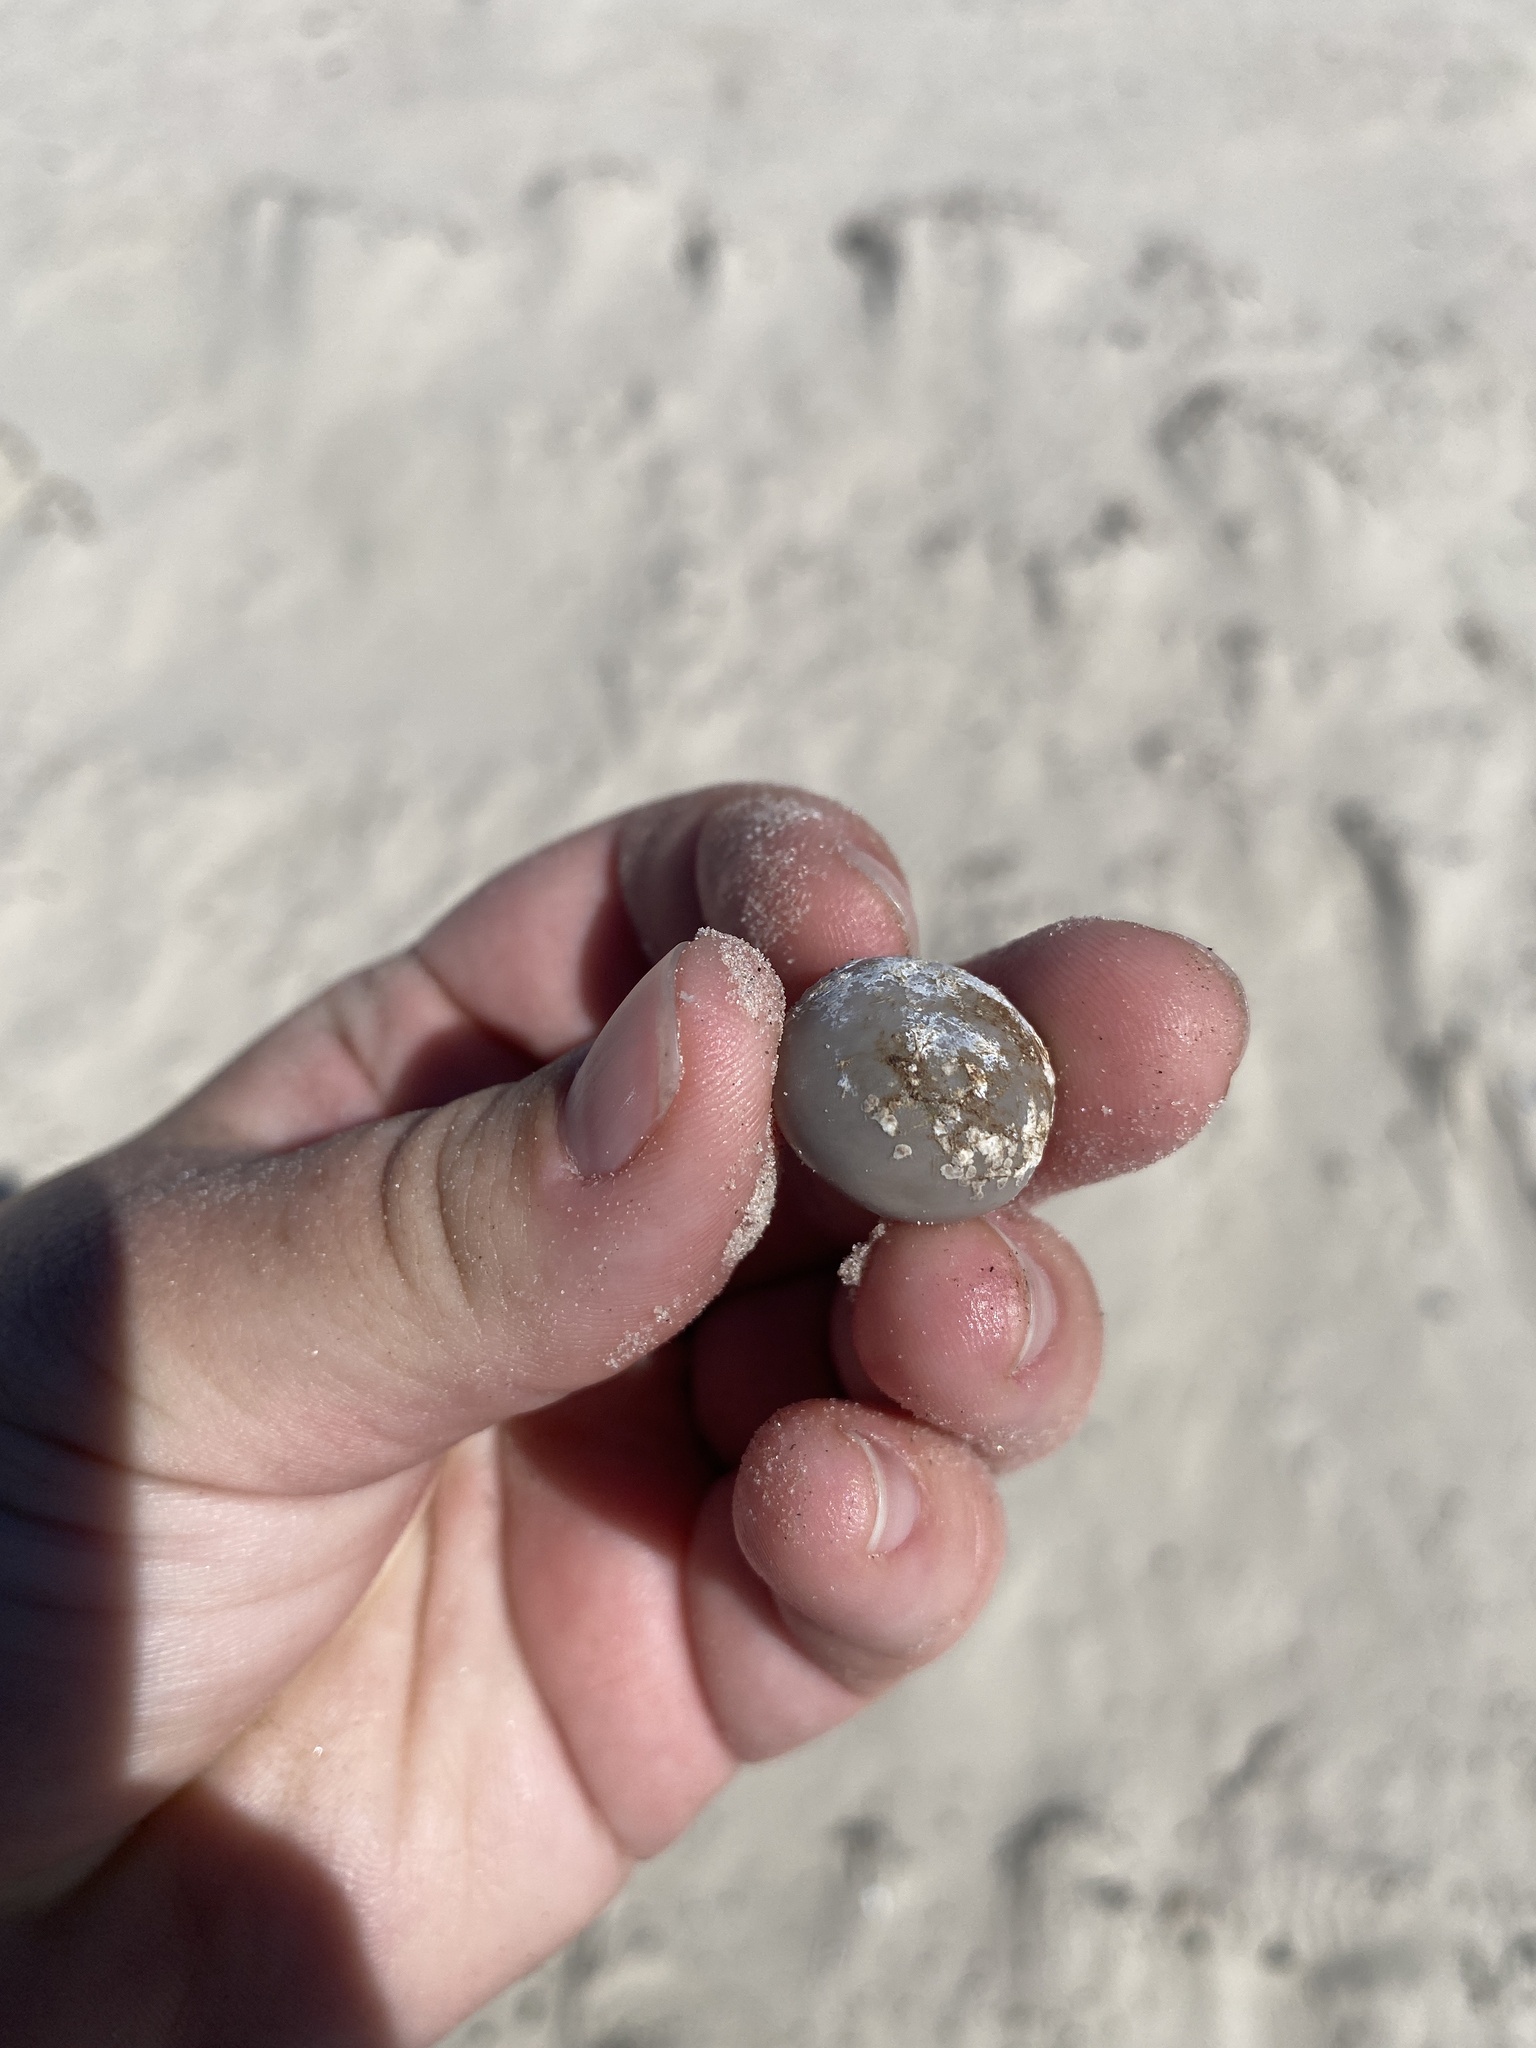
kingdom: Plantae
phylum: Tracheophyta
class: Magnoliopsida
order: Fabales
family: Fabaceae
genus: Guilandina
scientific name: Guilandina bonduc
